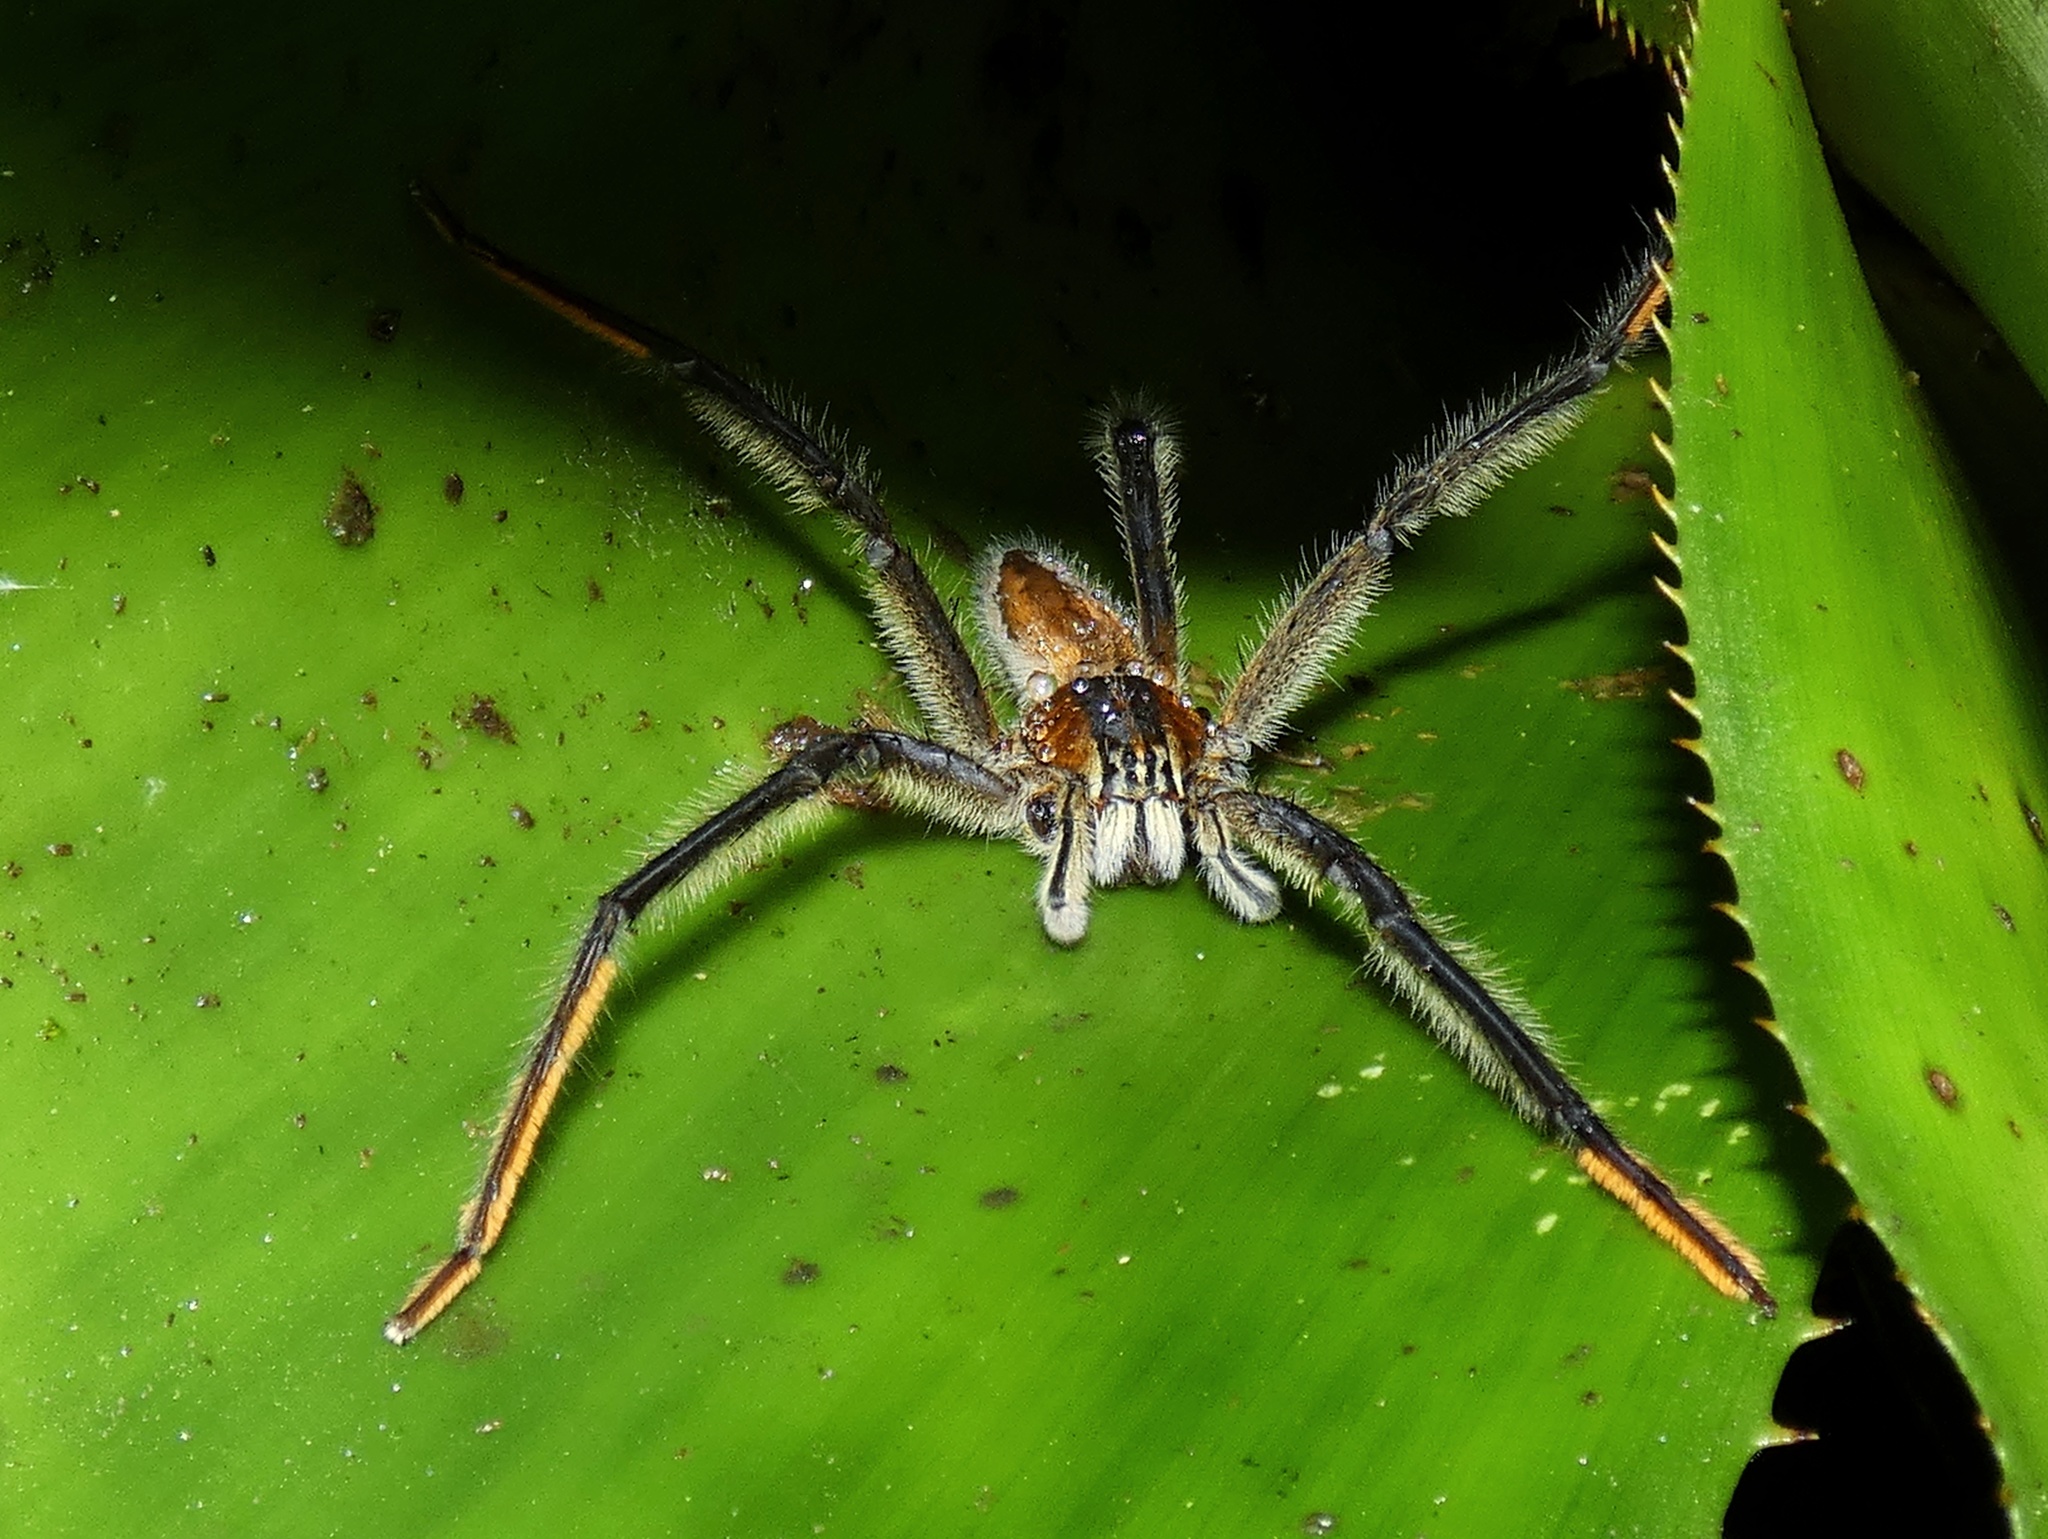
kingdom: Animalia
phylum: Arthropoda
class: Arachnida
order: Araneae
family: Trechaleidae
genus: Cupiennius
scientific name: Cupiennius getazi
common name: Wandering spiders
